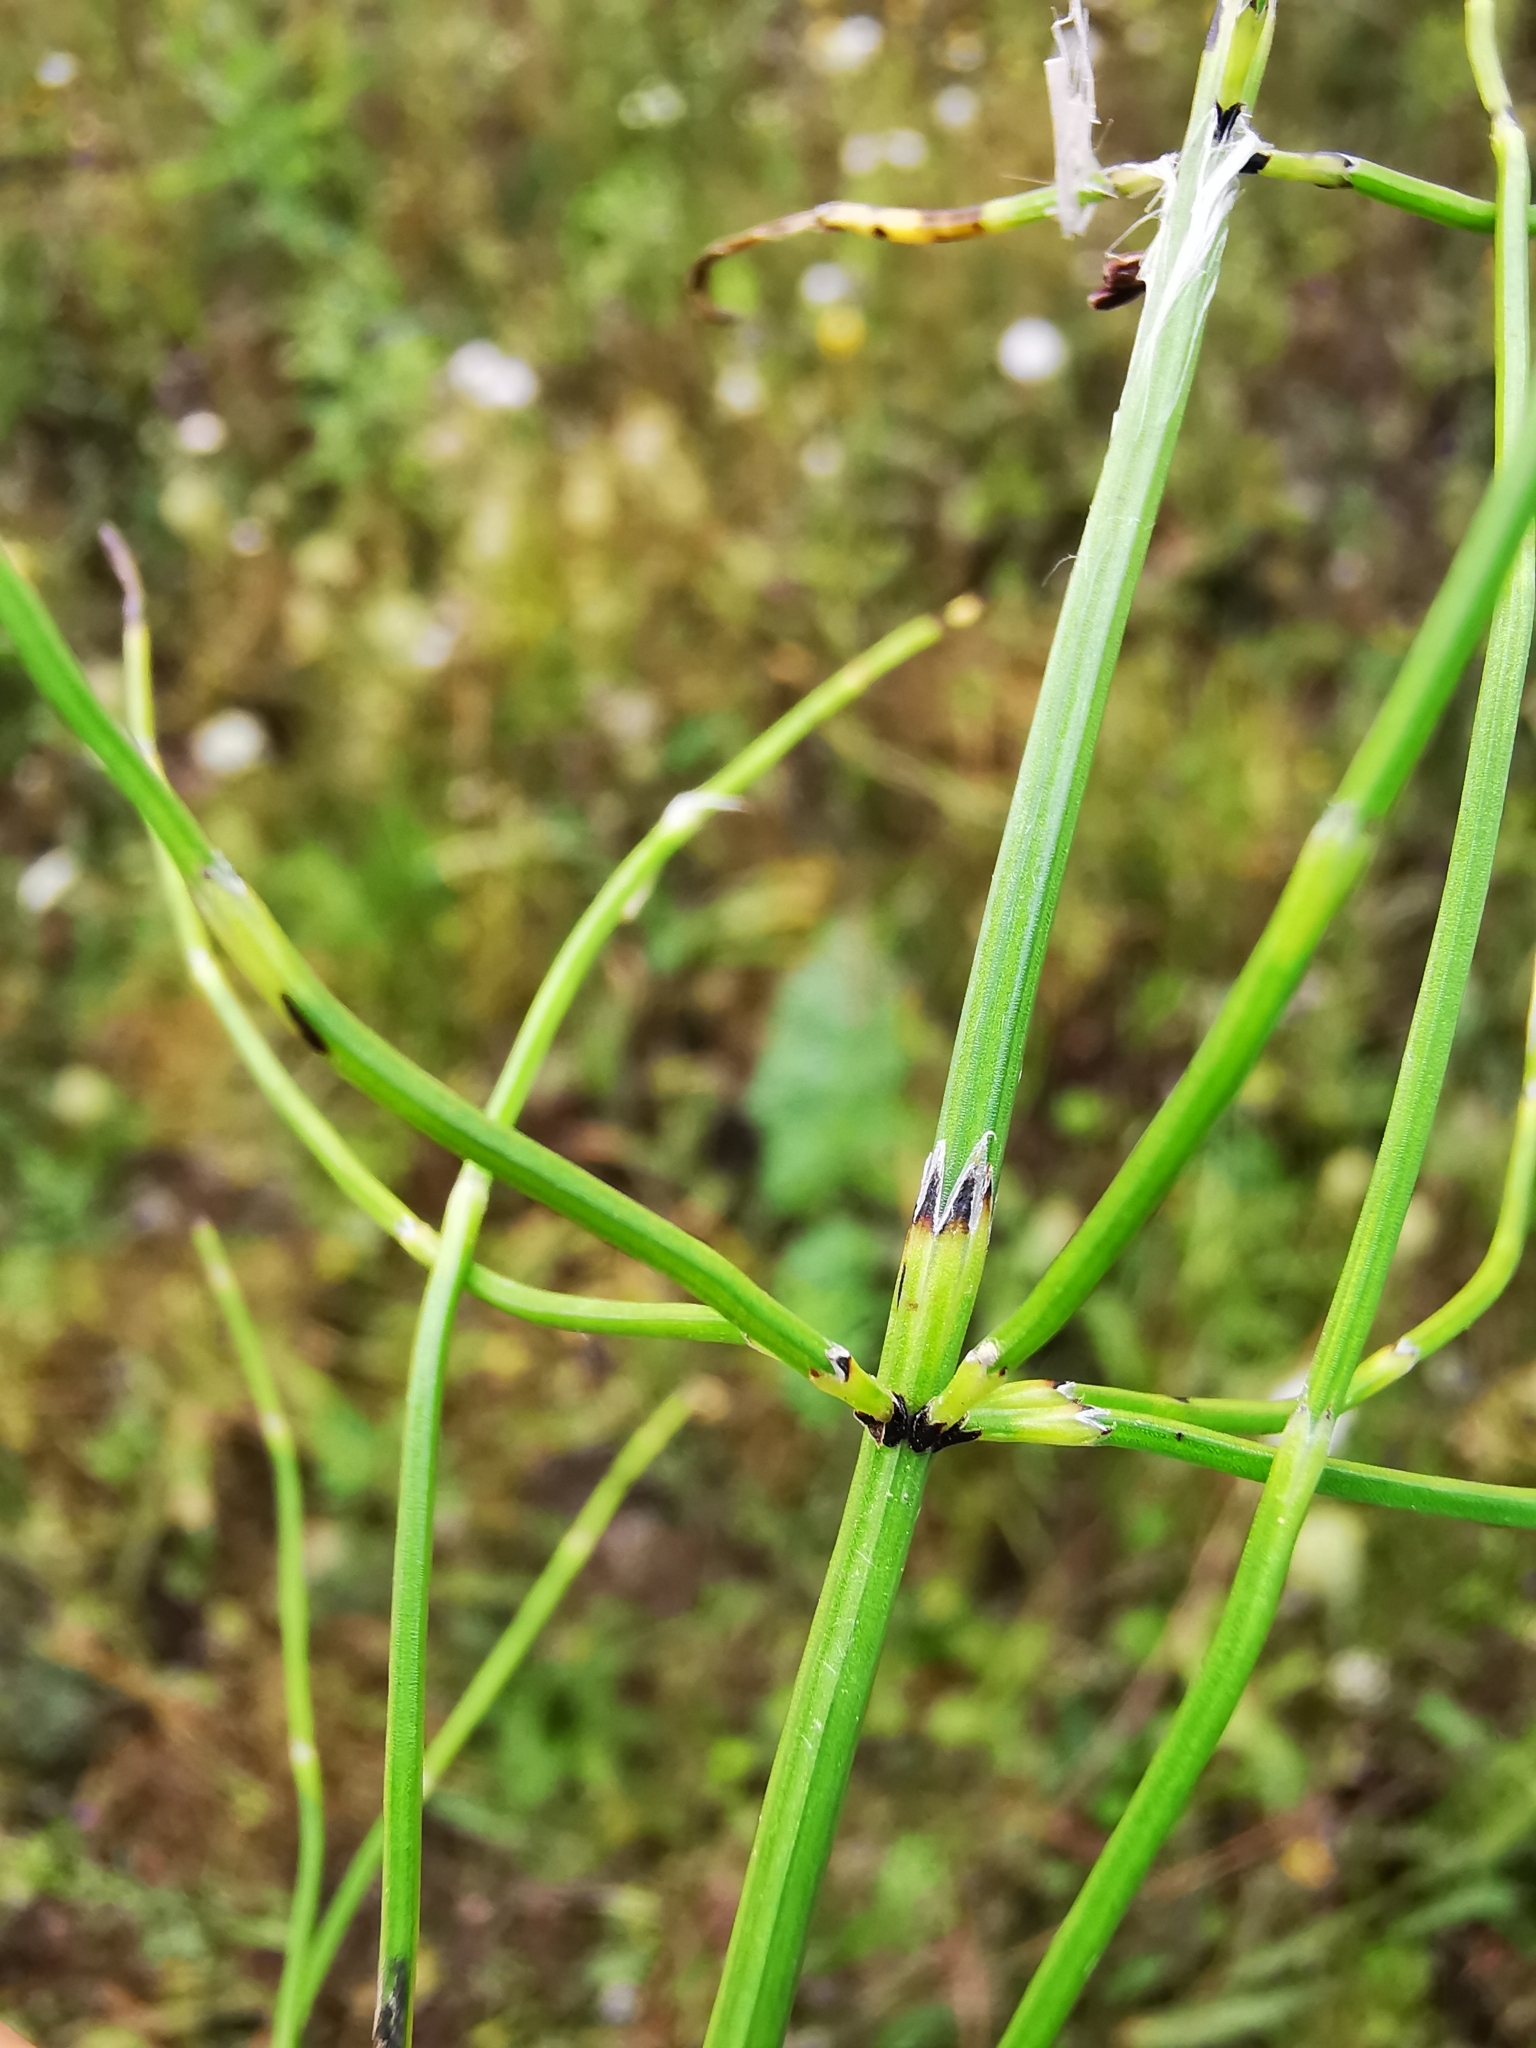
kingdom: Plantae
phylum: Tracheophyta
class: Polypodiopsida
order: Equisetales
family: Equisetaceae
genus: Equisetum
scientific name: Equisetum palustre
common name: Marsh horsetail
